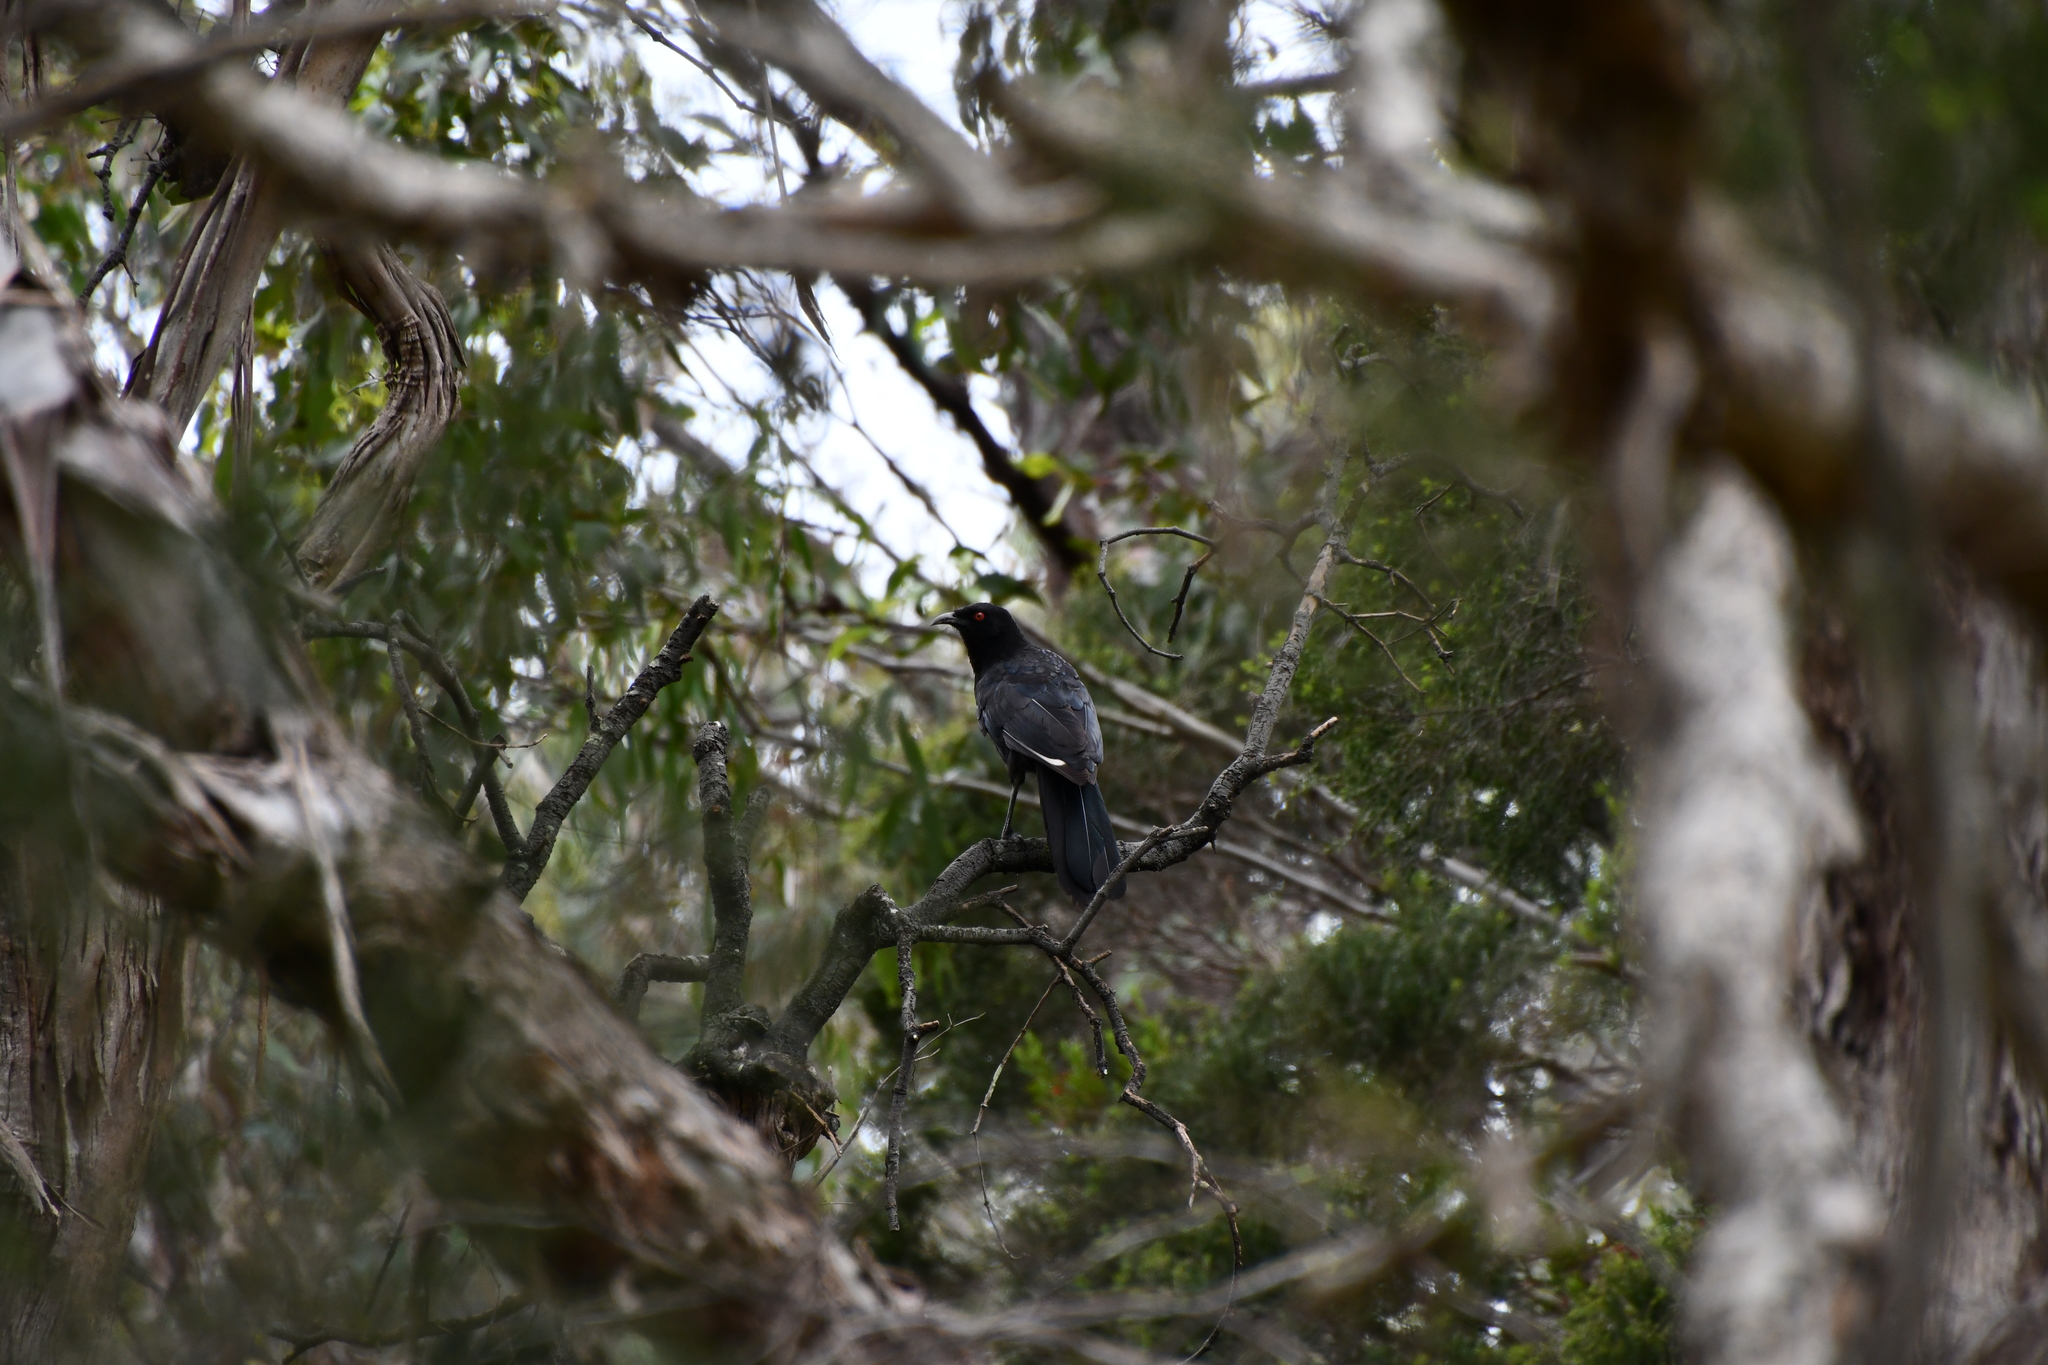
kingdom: Animalia
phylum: Chordata
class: Aves
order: Passeriformes
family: Corcoracidae
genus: Corcorax
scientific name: Corcorax melanoramphos
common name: White-winged chough
